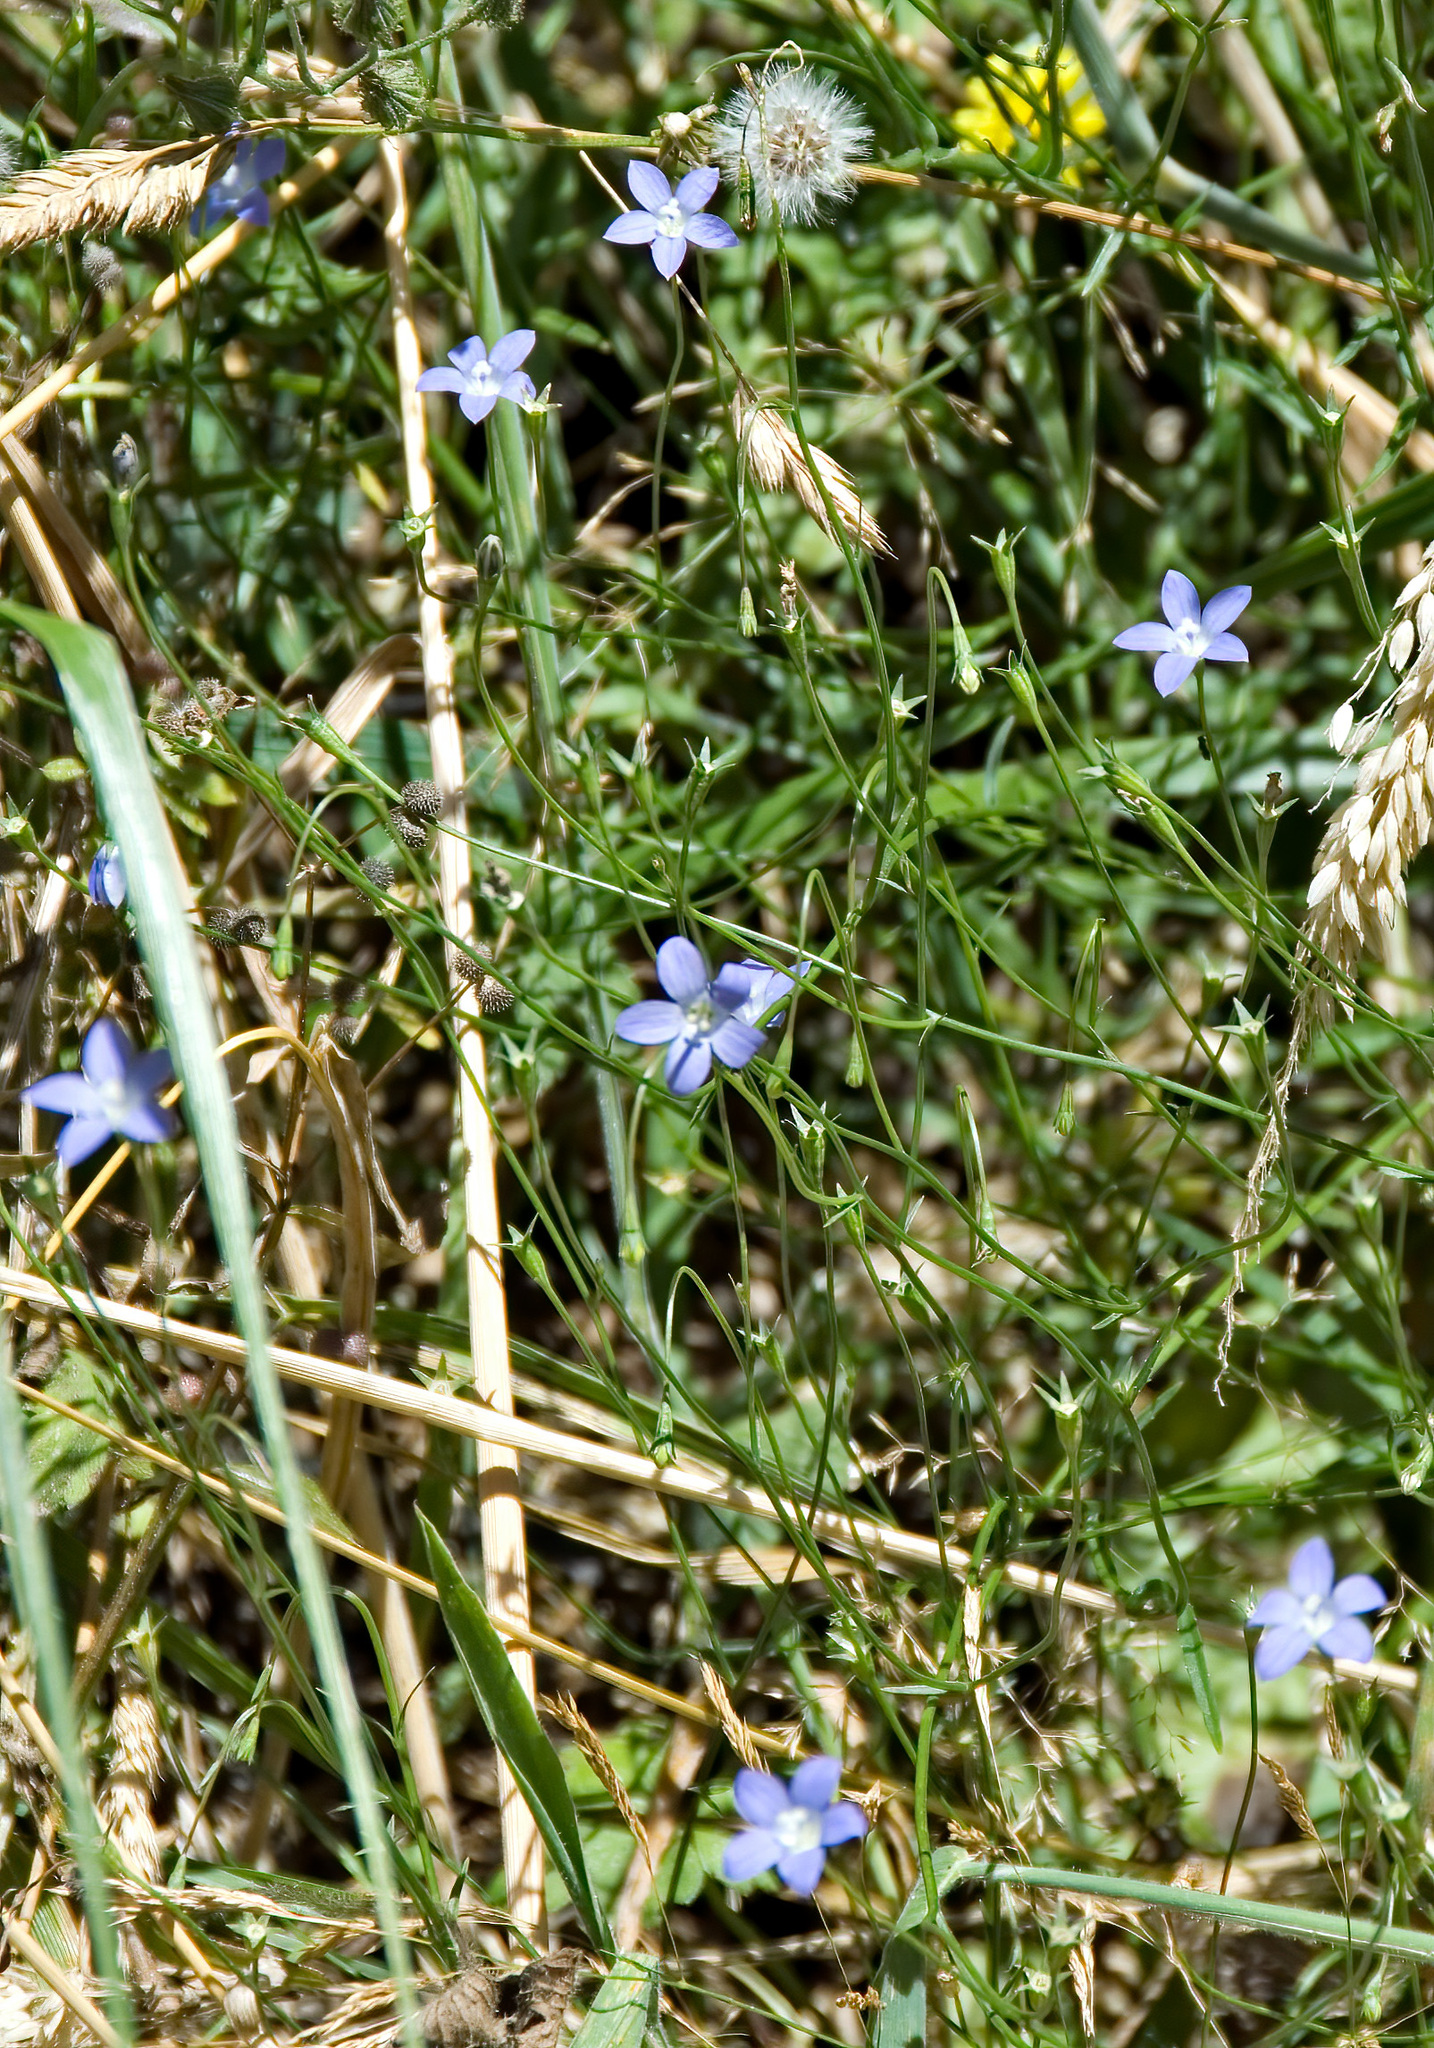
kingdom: Plantae
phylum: Tracheophyta
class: Magnoliopsida
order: Asterales
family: Campanulaceae
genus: Wahlenbergia
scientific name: Wahlenbergia stricta
